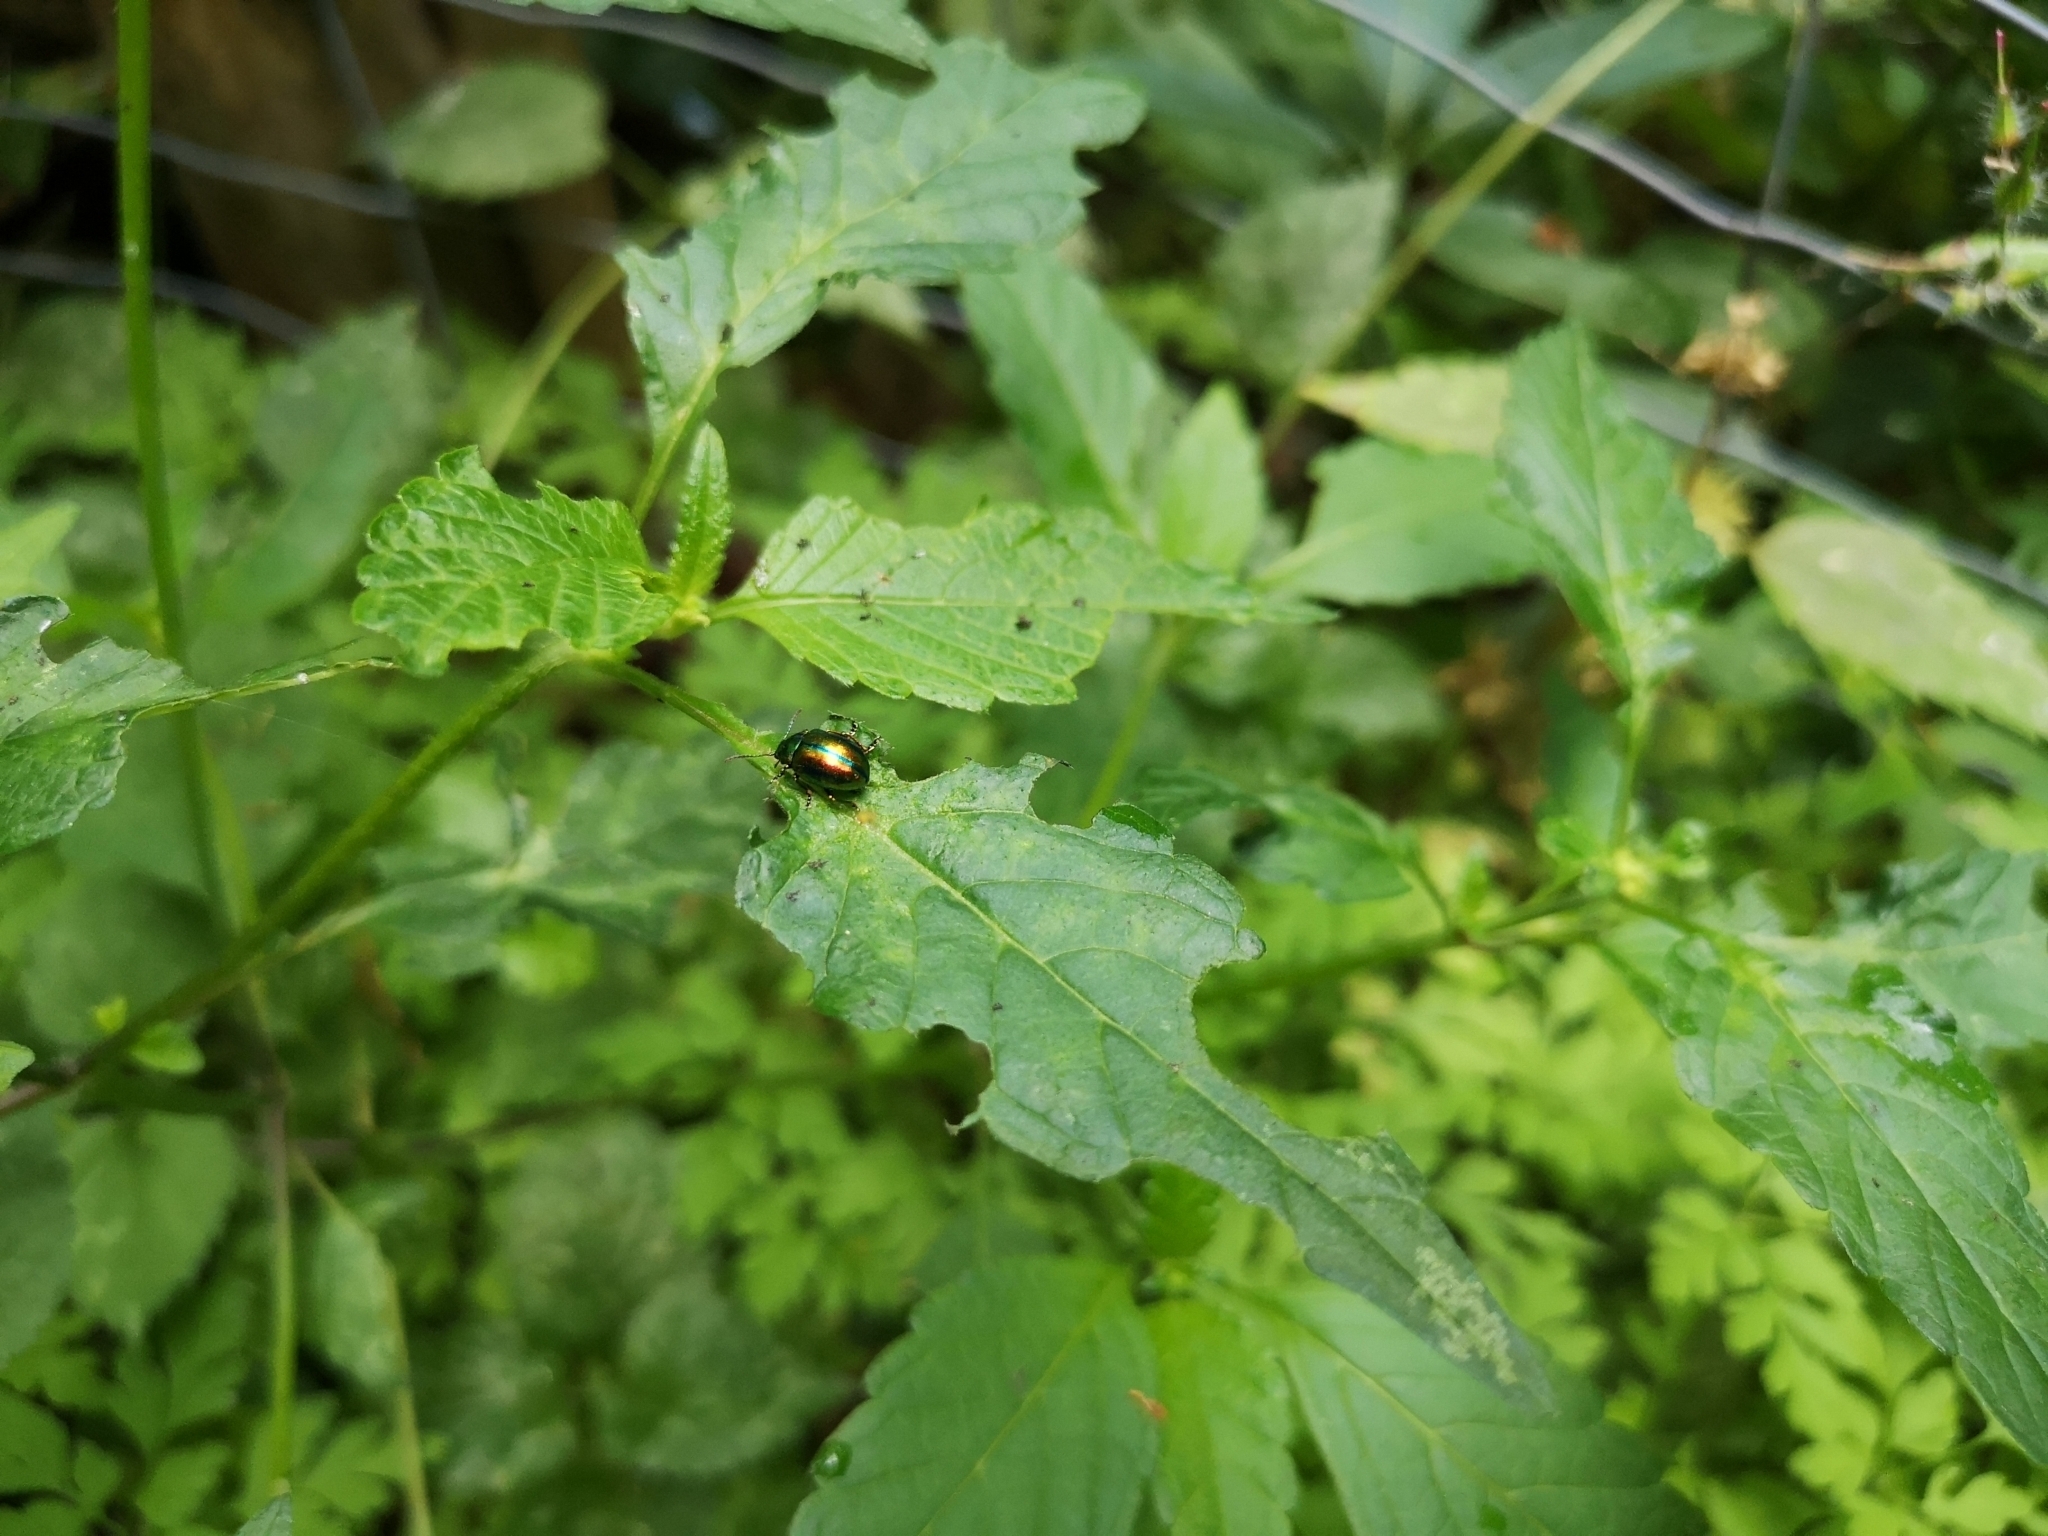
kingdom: Animalia
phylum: Arthropoda
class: Insecta
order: Coleoptera
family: Chrysomelidae
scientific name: Chrysomelidae
